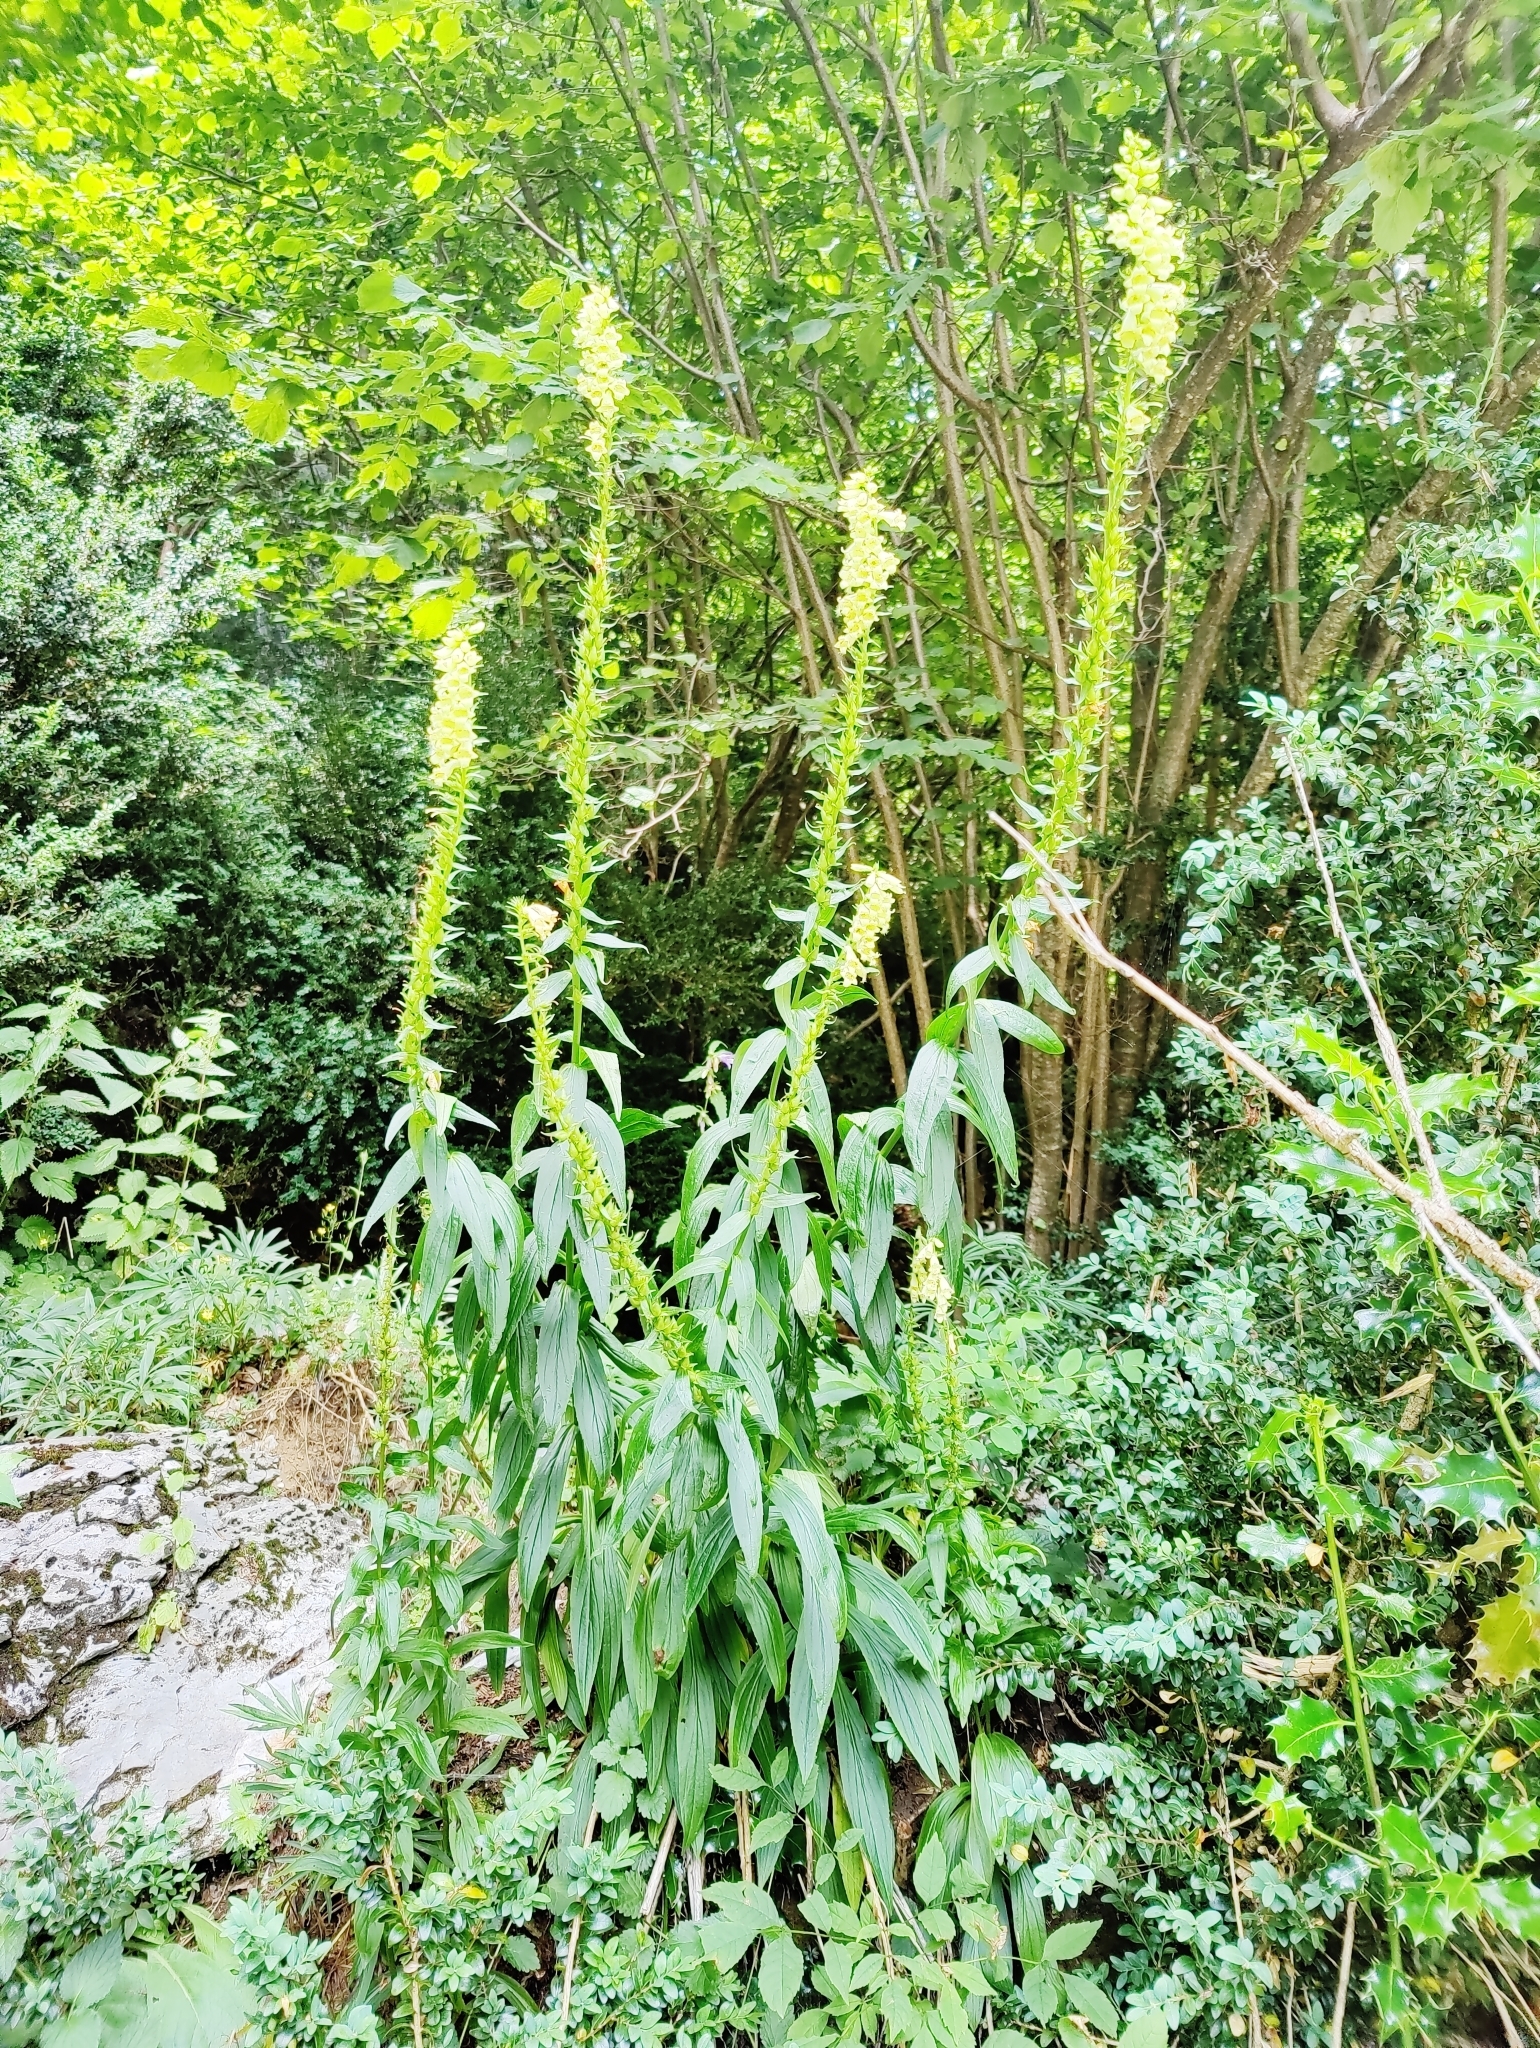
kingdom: Plantae
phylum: Tracheophyta
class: Magnoliopsida
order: Lamiales
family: Plantaginaceae
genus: Digitalis
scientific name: Digitalis lutea
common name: Straw foxglove
